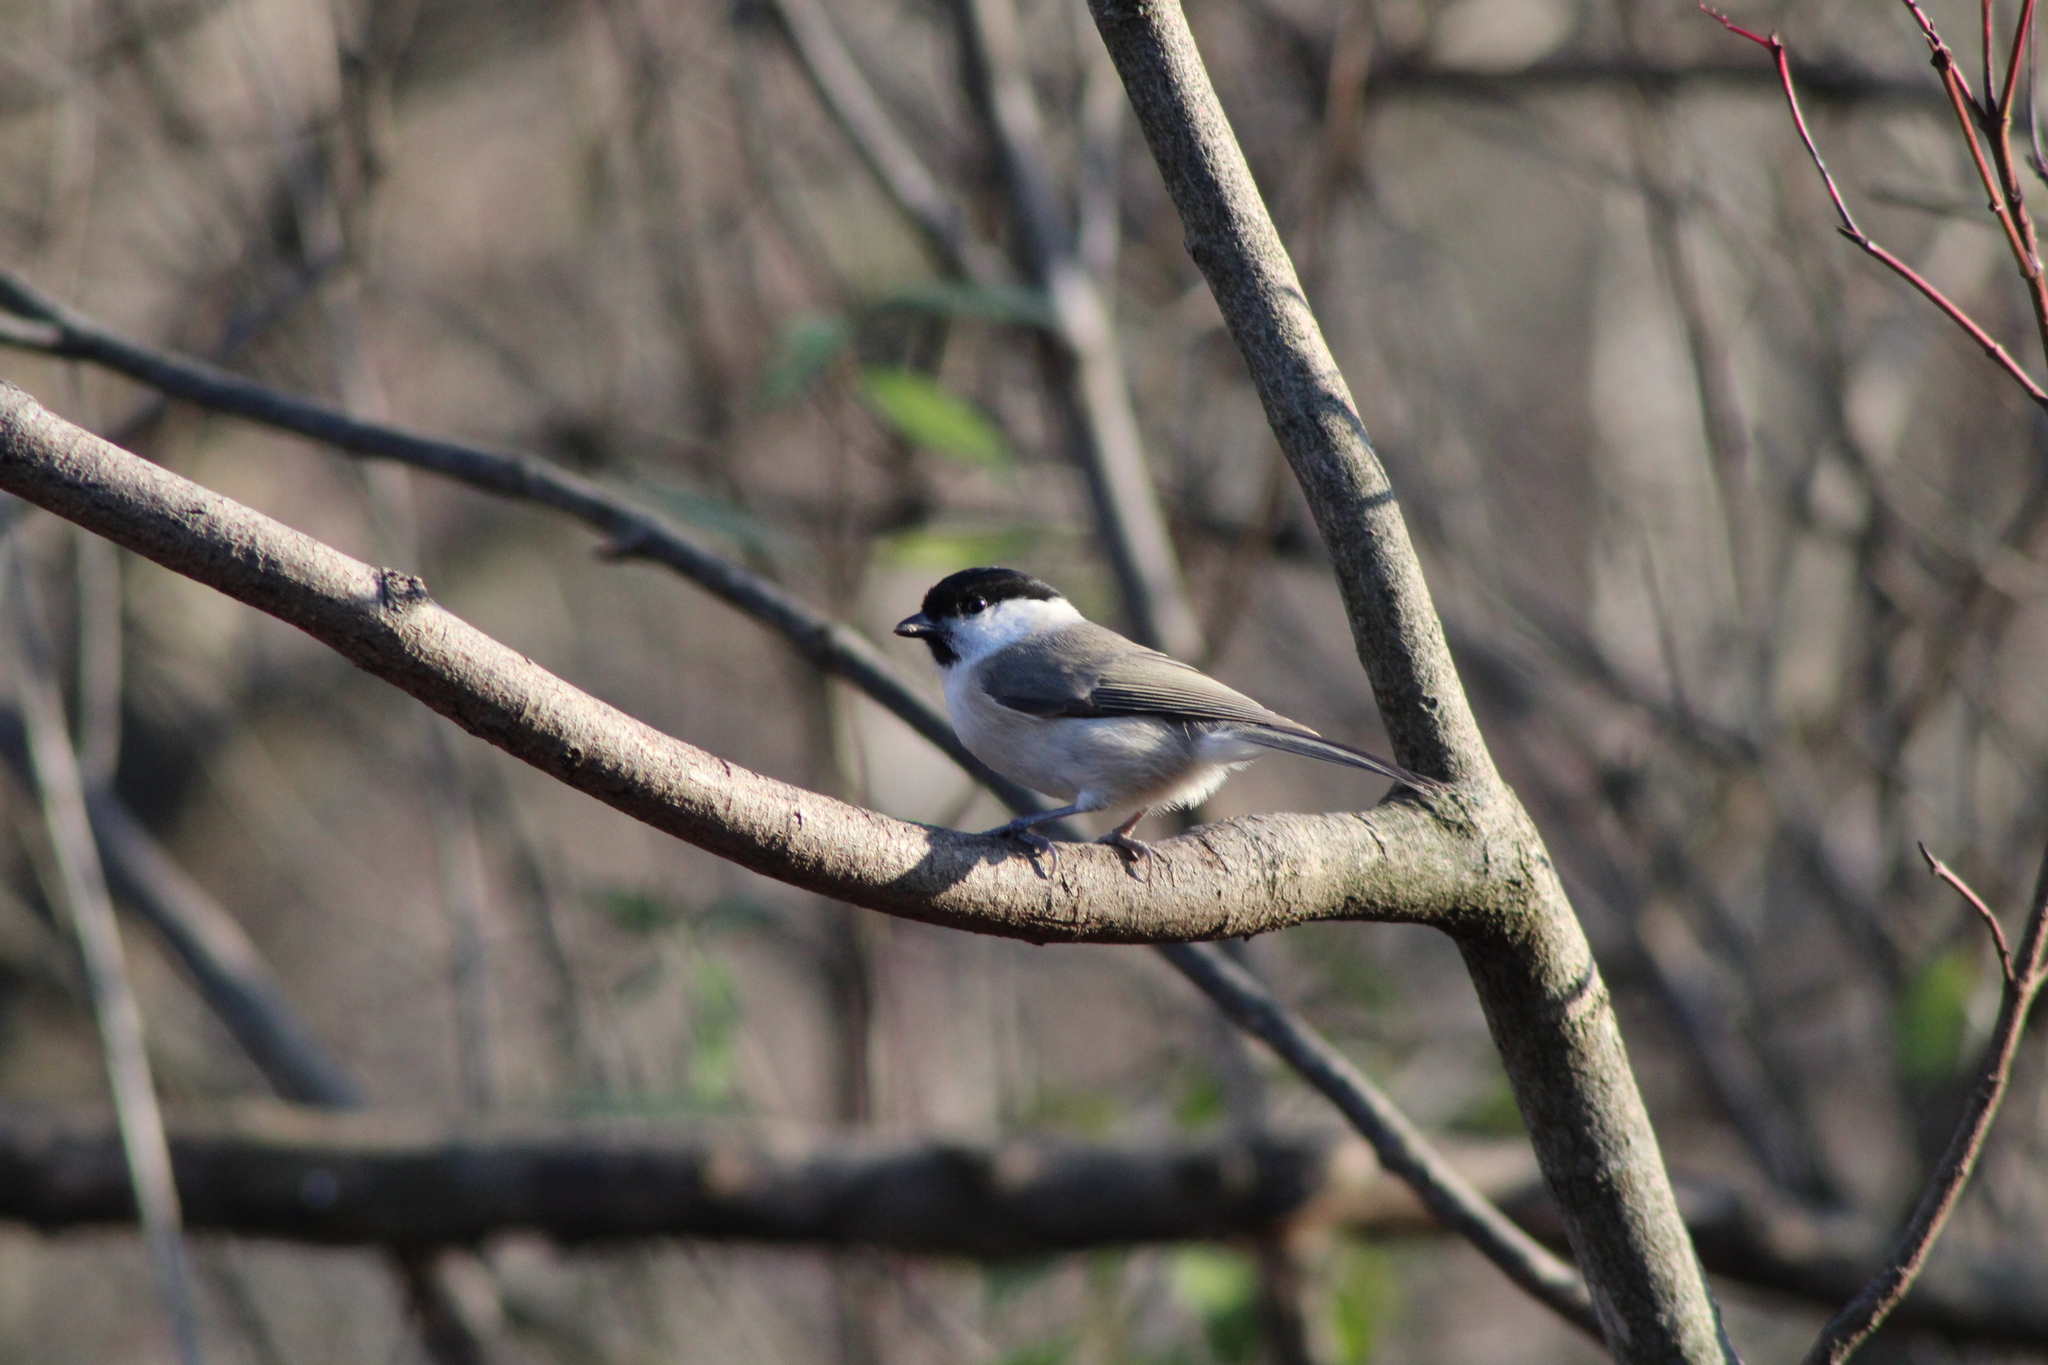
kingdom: Animalia
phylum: Chordata
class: Aves
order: Passeriformes
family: Paridae
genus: Poecile
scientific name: Poecile palustris
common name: Marsh tit
